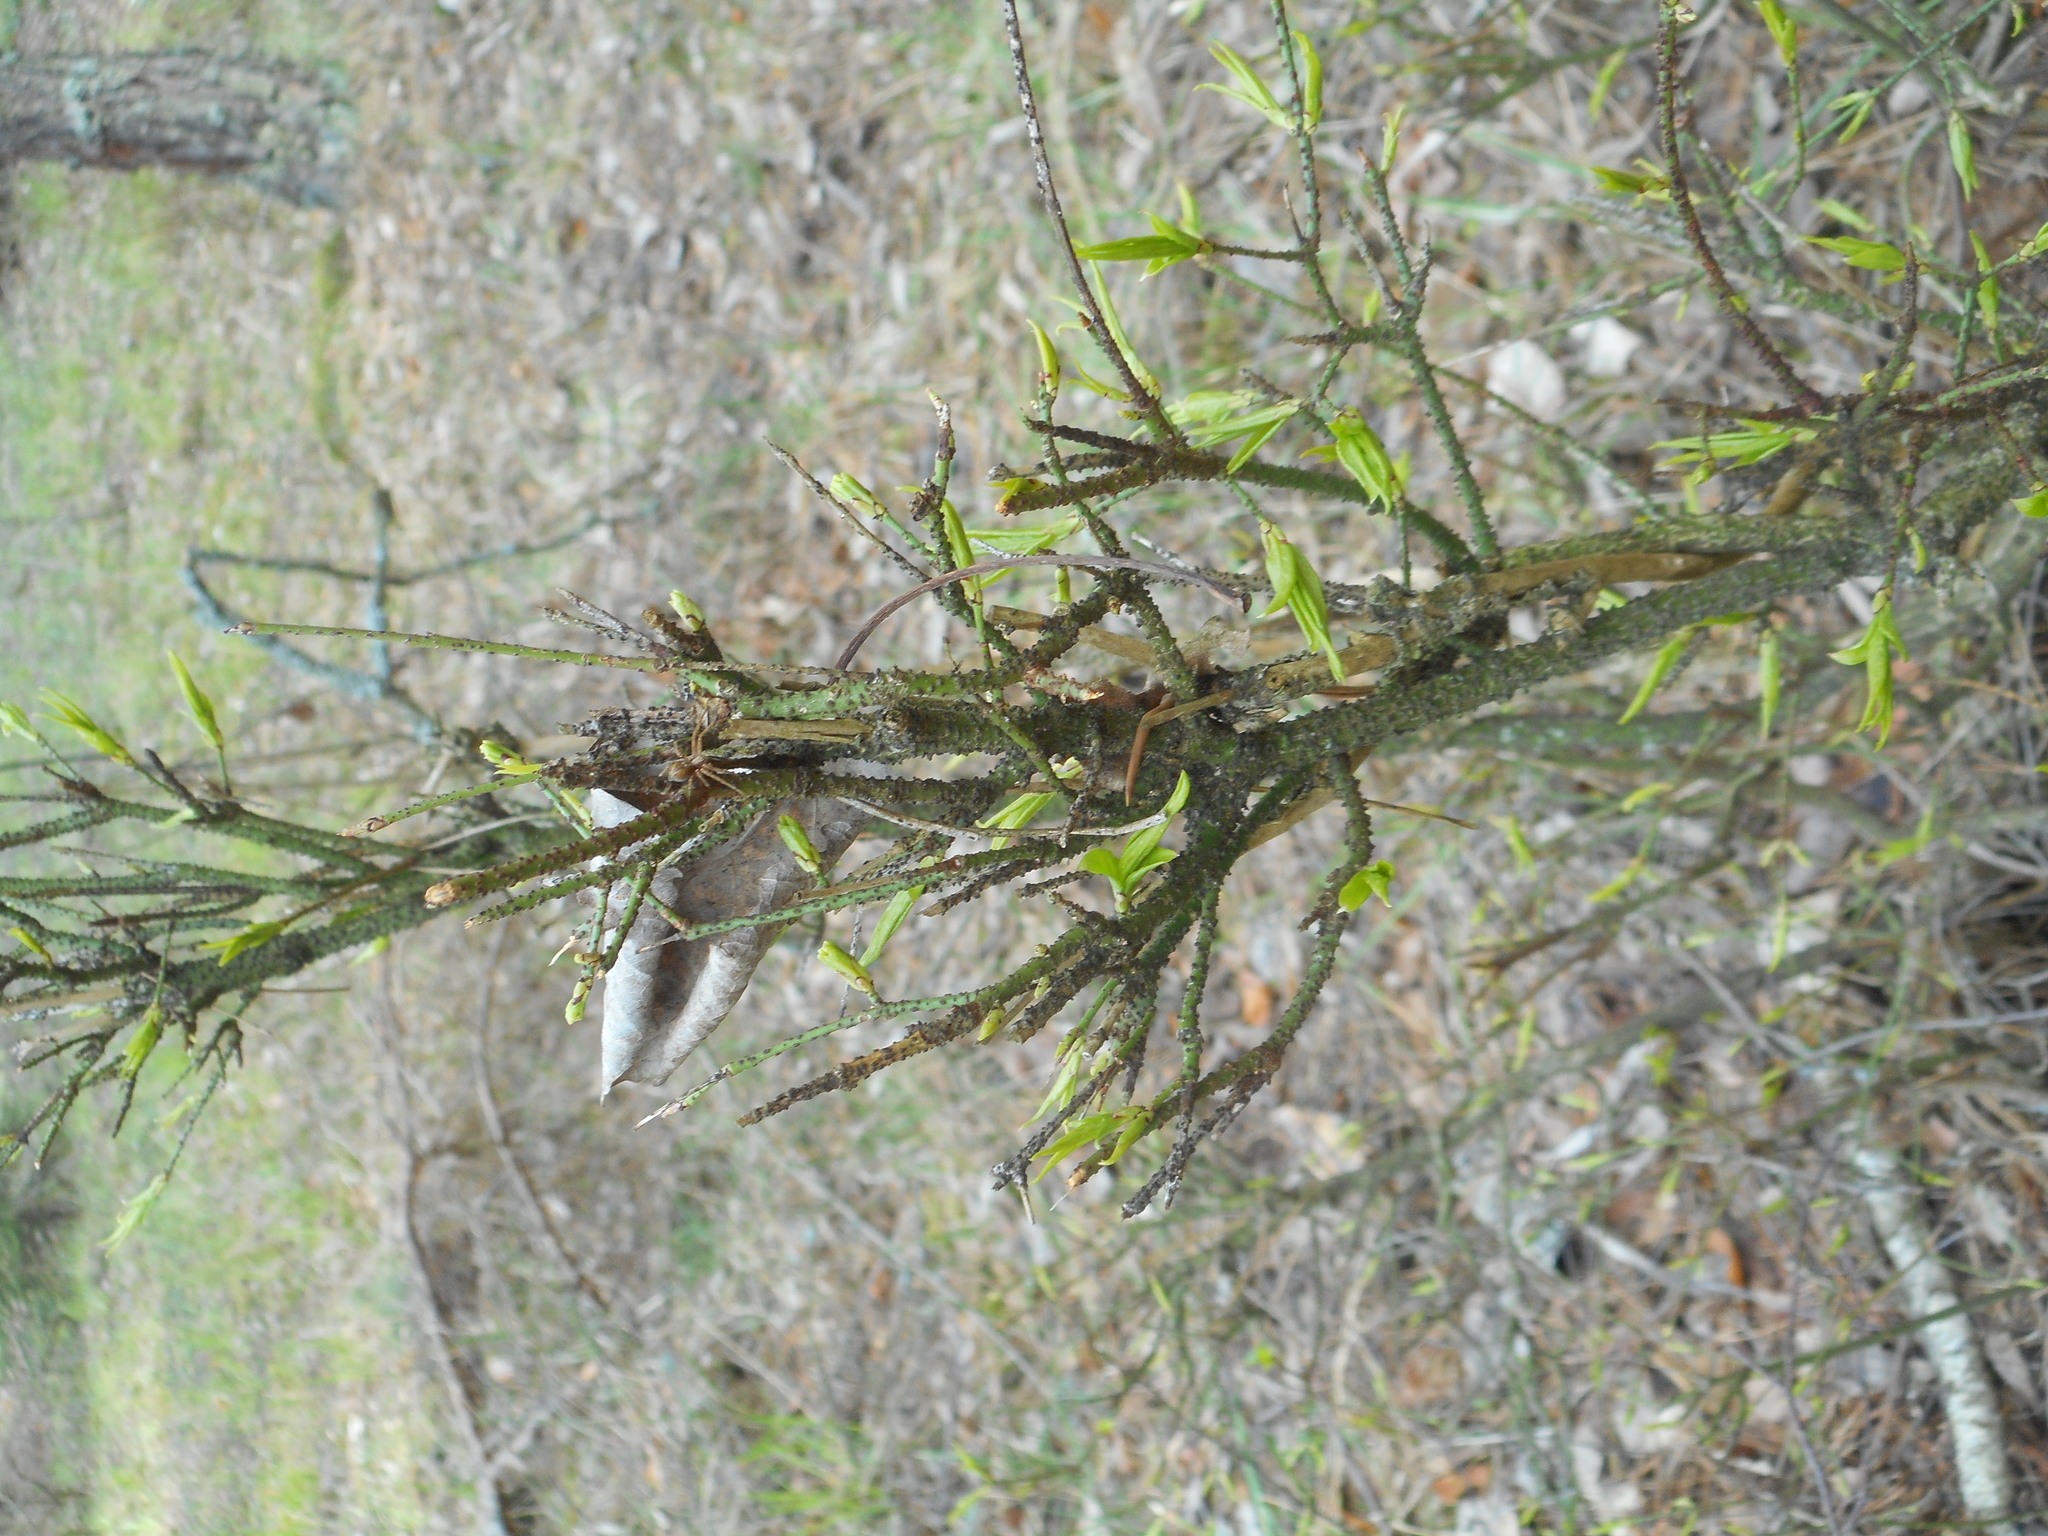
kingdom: Plantae
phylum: Tracheophyta
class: Magnoliopsida
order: Celastrales
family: Celastraceae
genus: Euonymus
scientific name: Euonymus verrucosus
